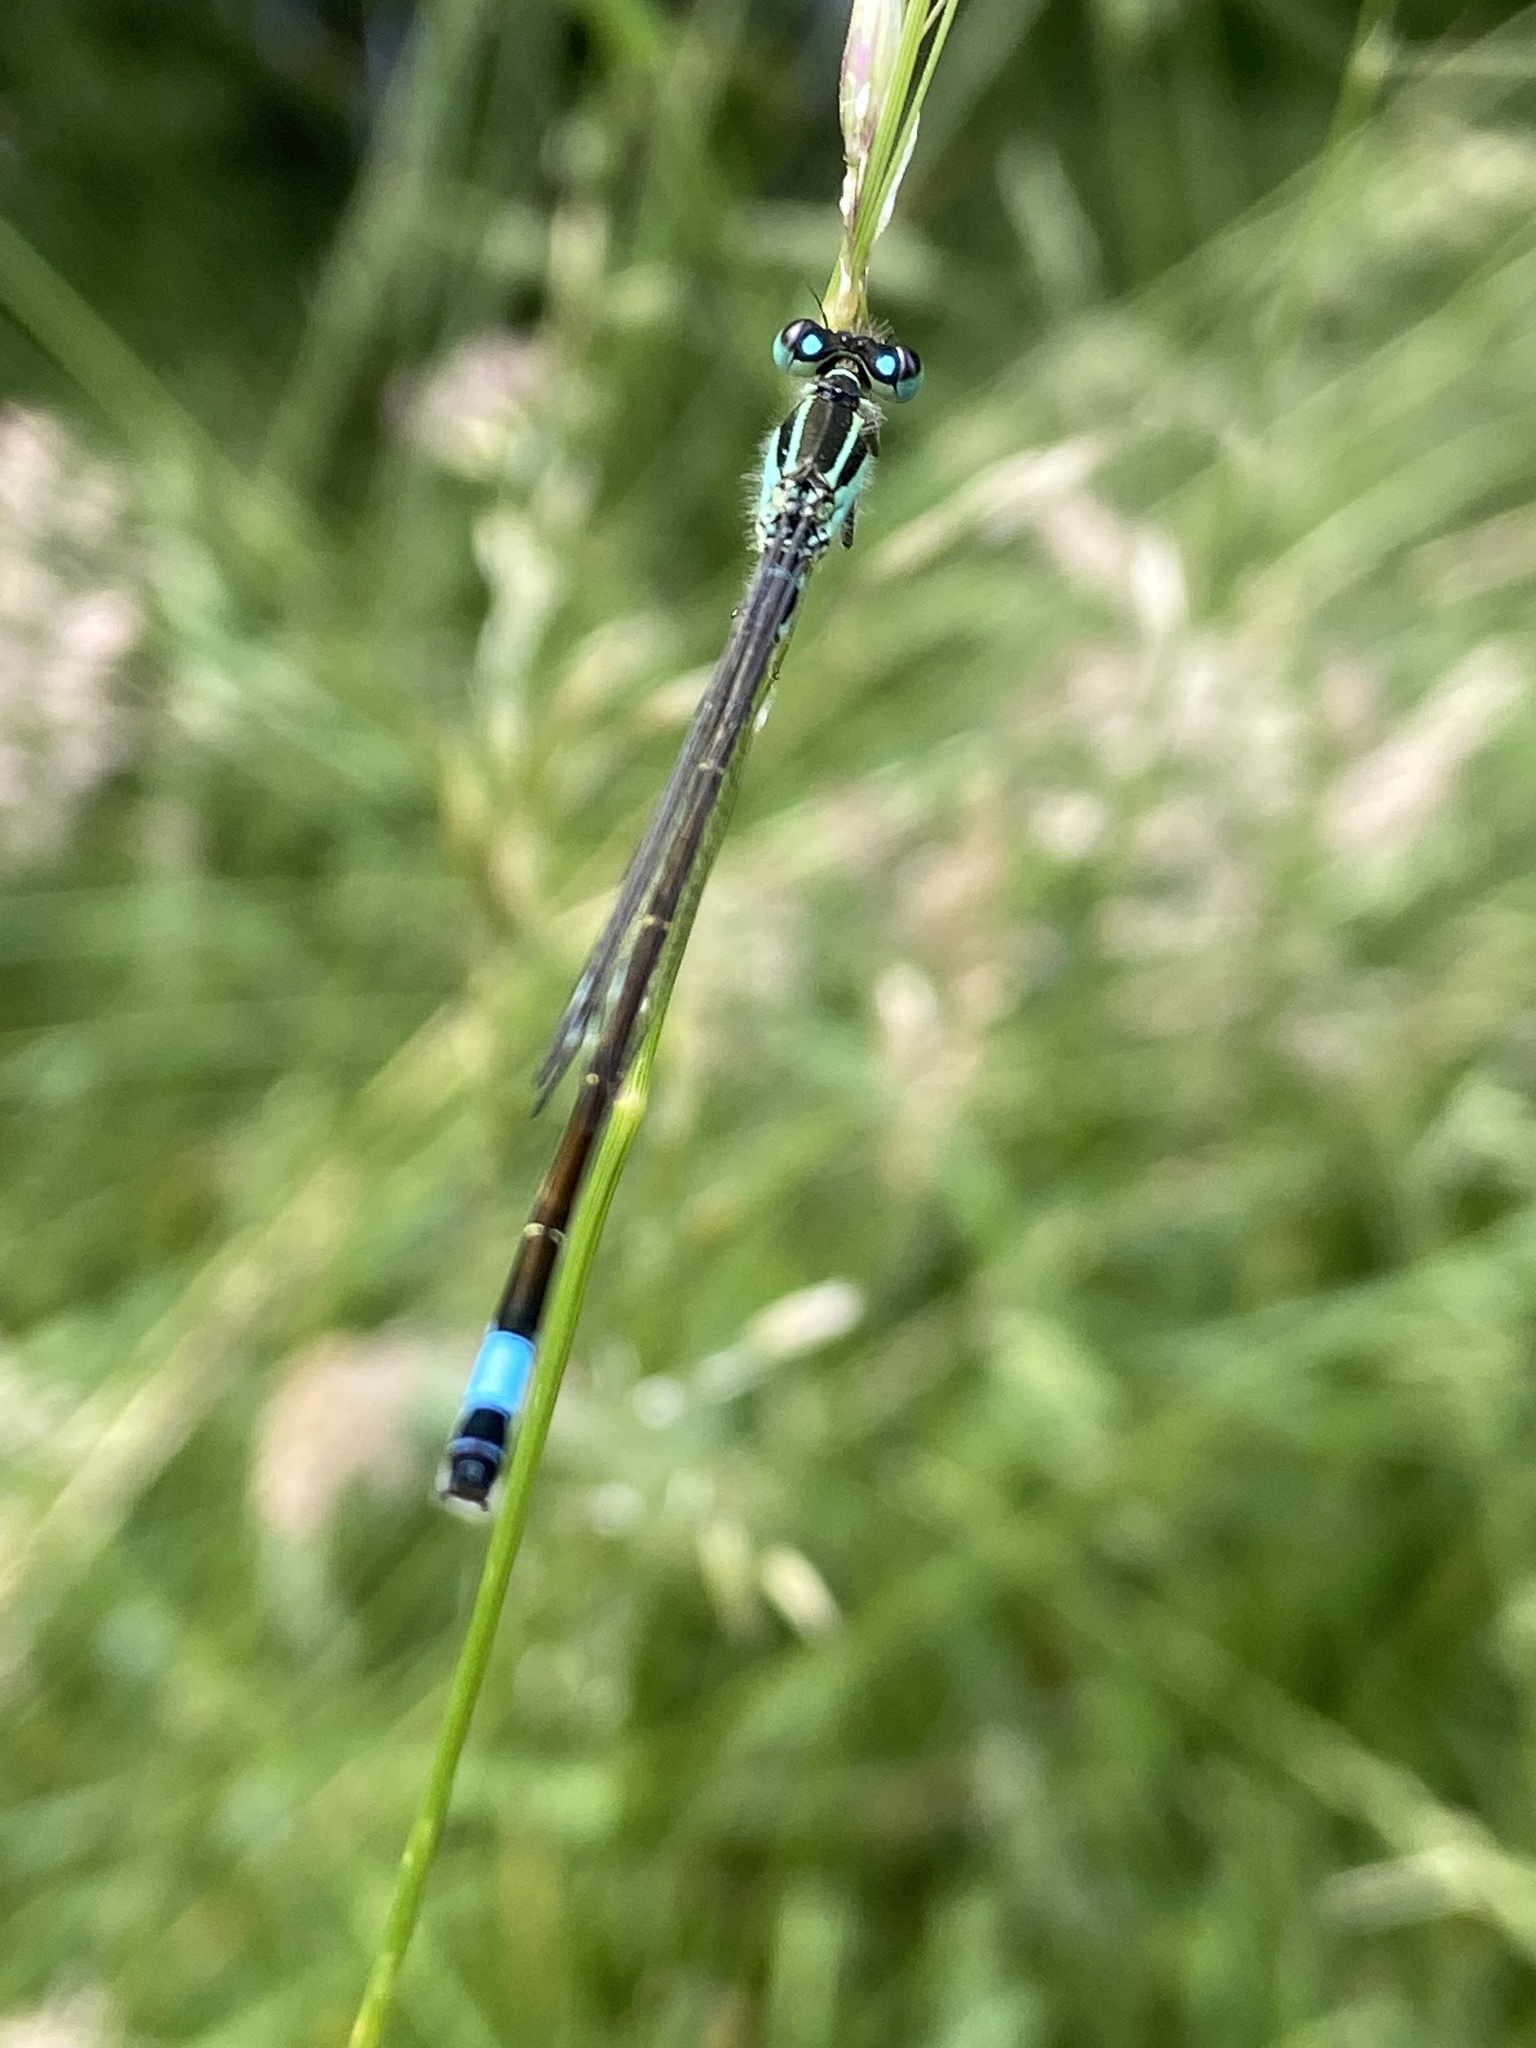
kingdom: Animalia
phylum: Arthropoda
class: Insecta
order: Odonata
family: Coenagrionidae
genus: Ischnura
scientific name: Ischnura elegans
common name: Blue-tailed damselfly
